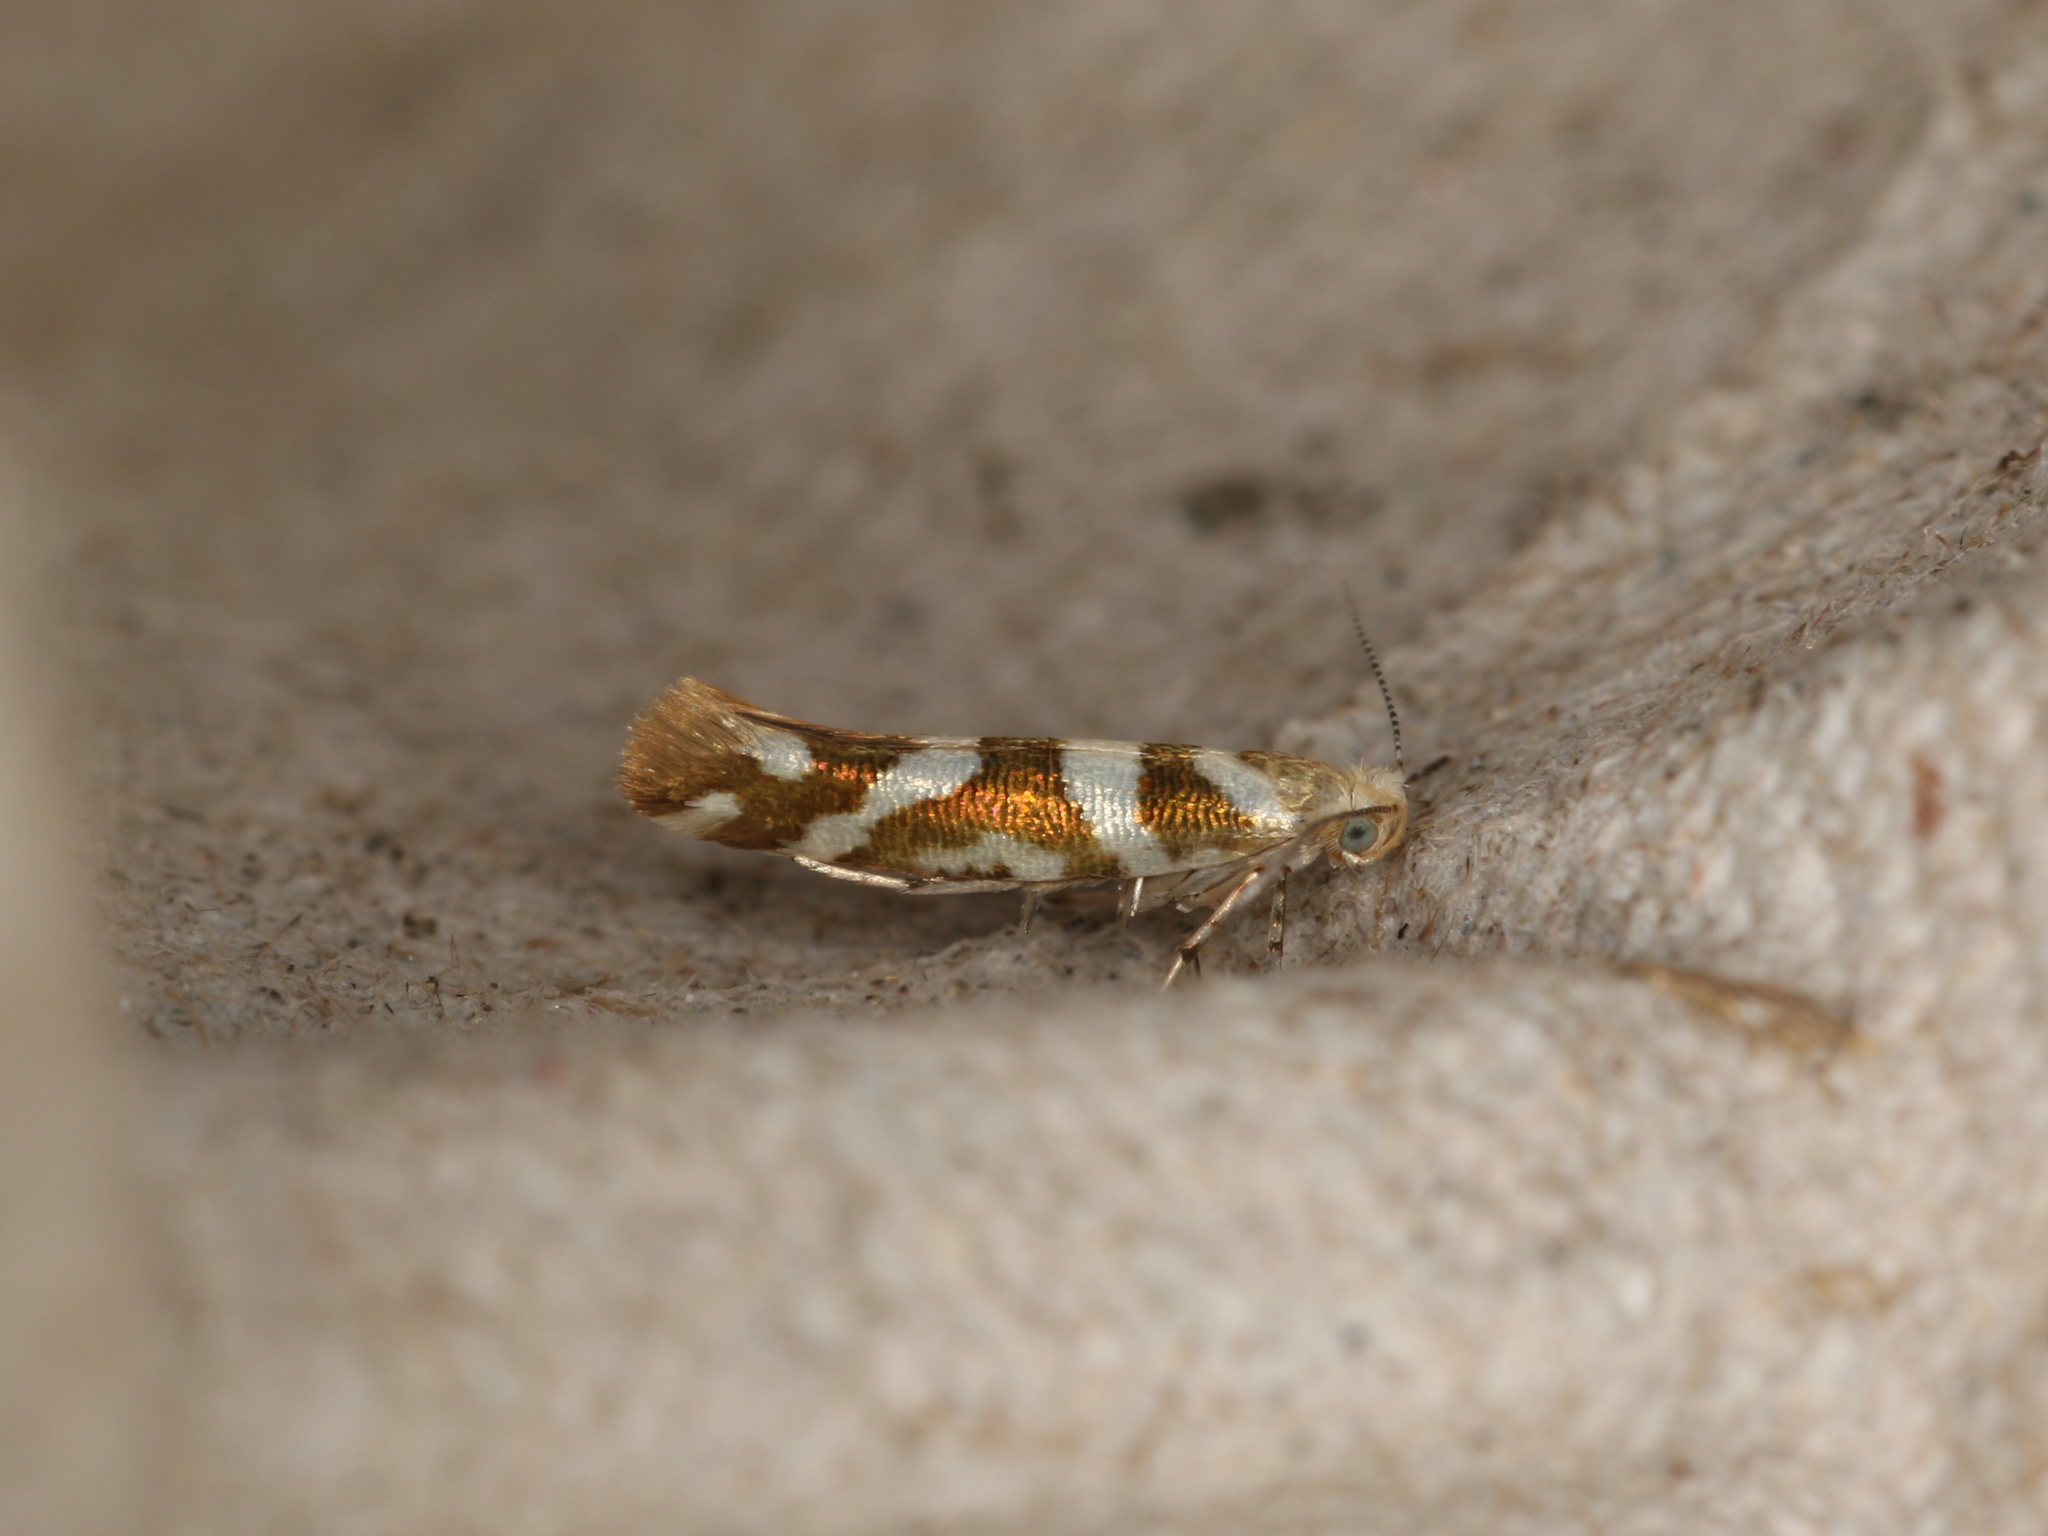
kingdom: Animalia
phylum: Arthropoda
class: Insecta
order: Lepidoptera
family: Argyresthiidae
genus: Argyresthia
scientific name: Argyresthia goedartella
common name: Golden argent
